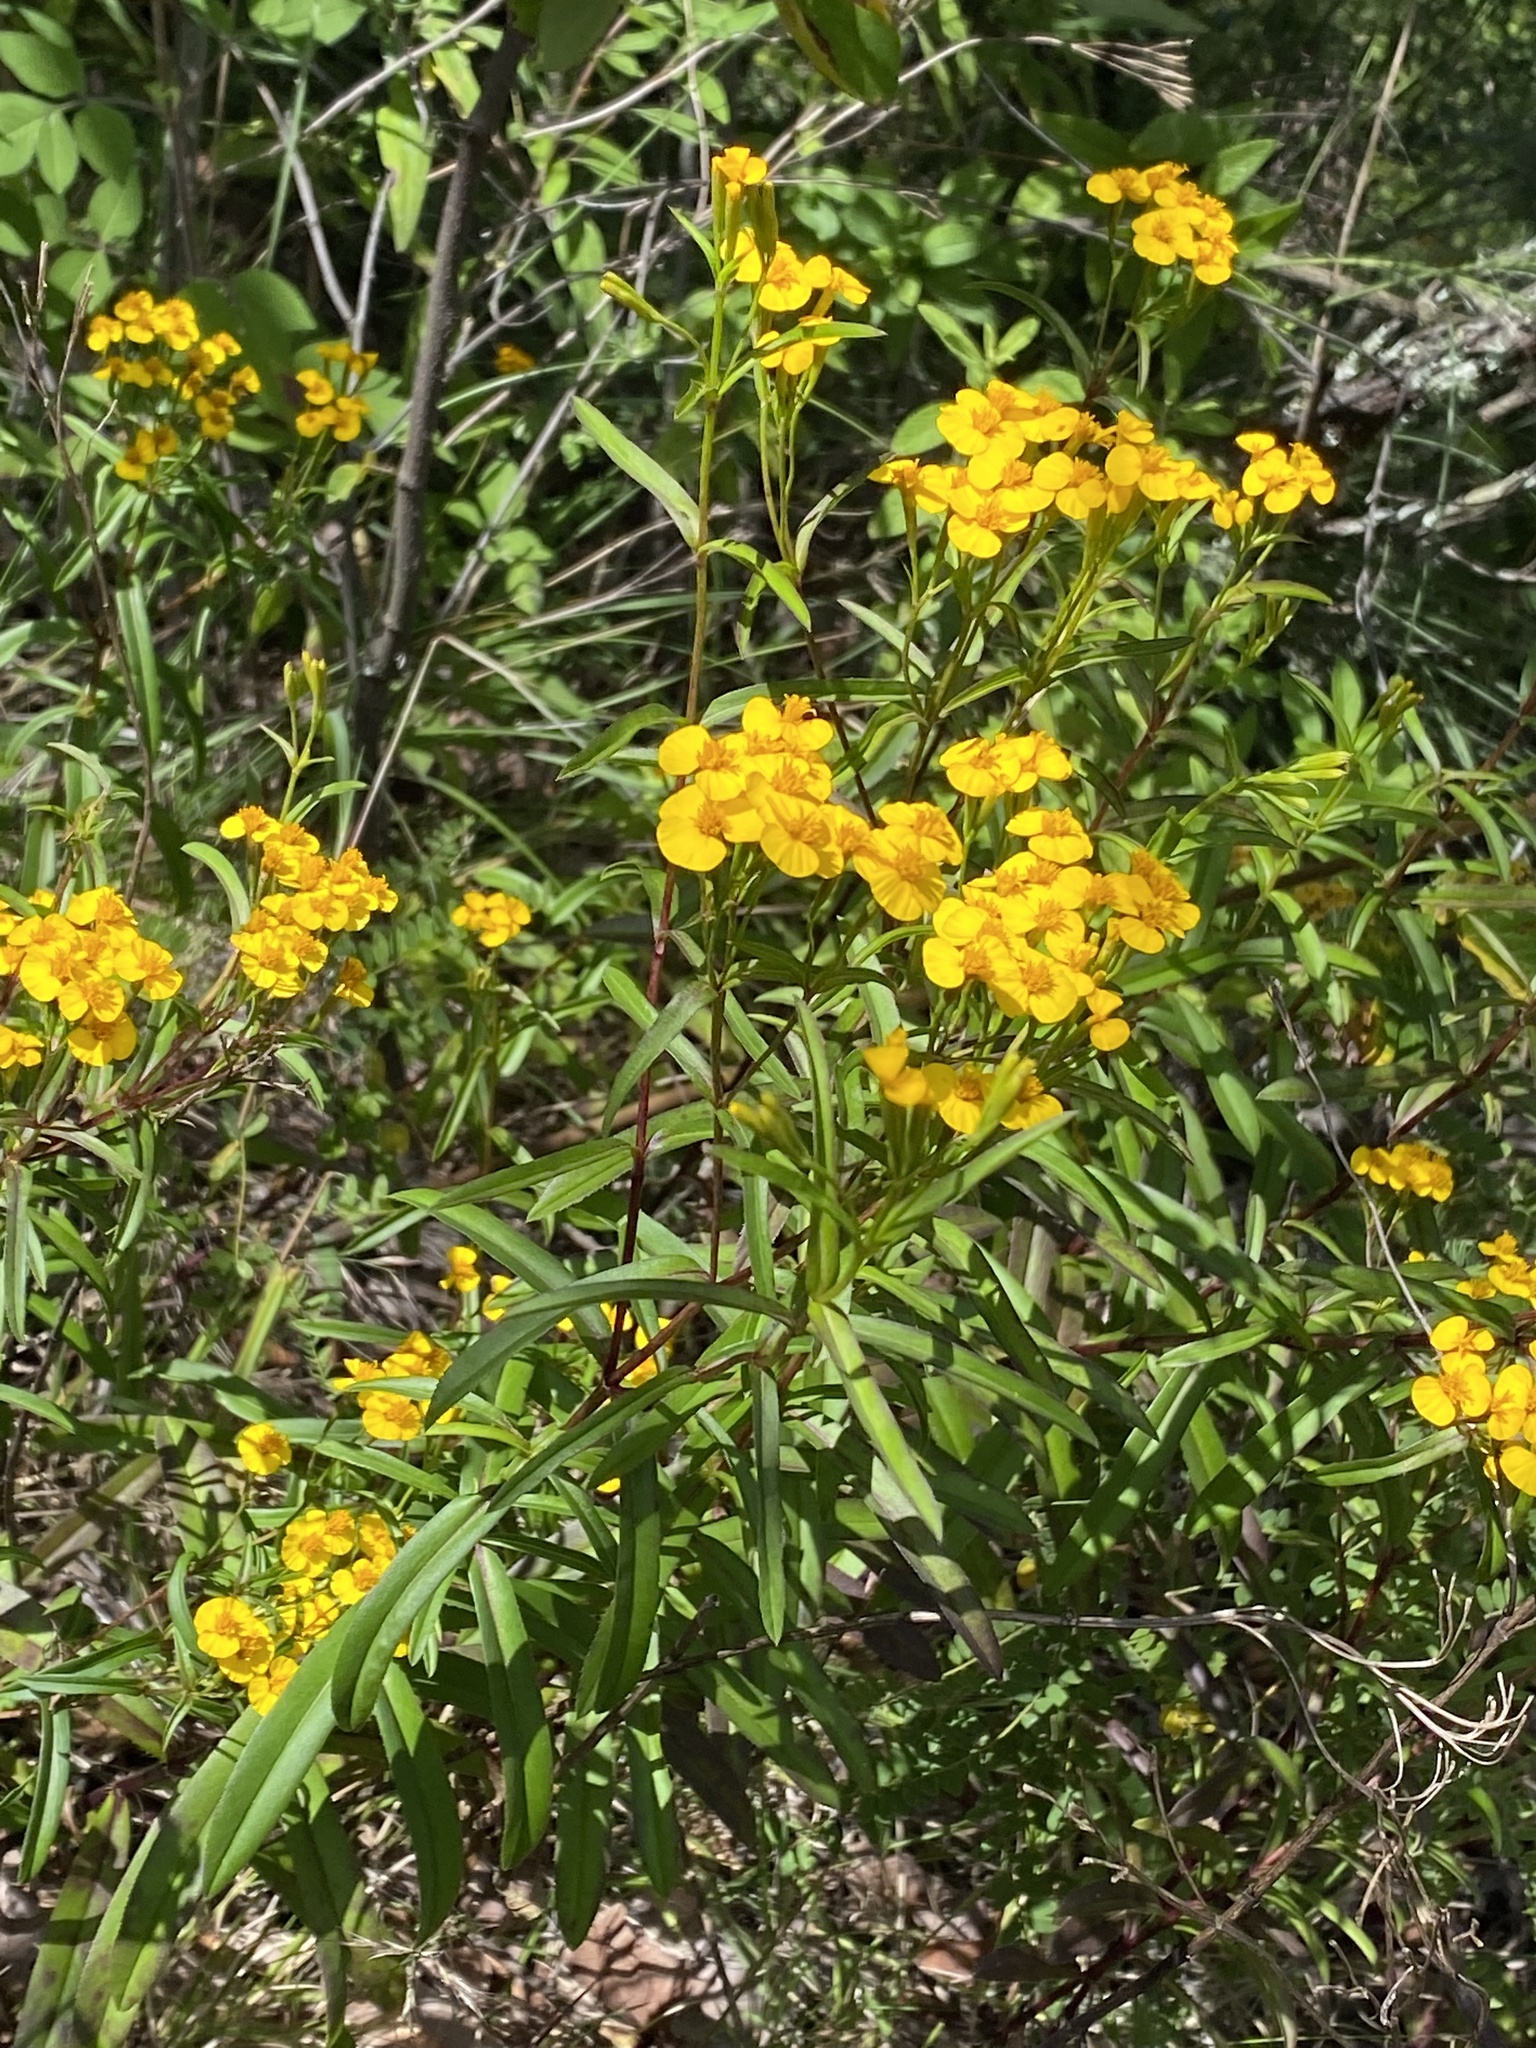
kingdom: Plantae
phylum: Tracheophyta
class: Magnoliopsida
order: Asterales
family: Asteraceae
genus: Tagetes
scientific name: Tagetes lucida
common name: Sweetscented marigold
